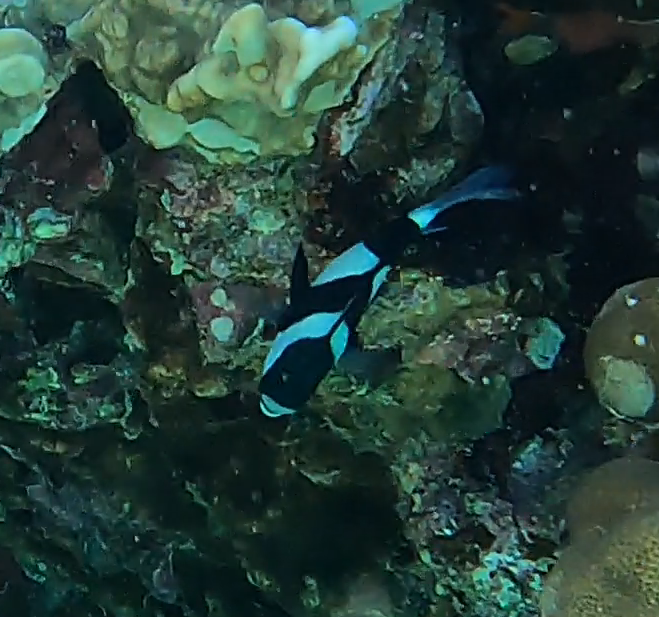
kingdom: Animalia
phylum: Chordata
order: Perciformes
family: Pomacentridae
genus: Dascyllus
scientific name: Dascyllus abudafur
